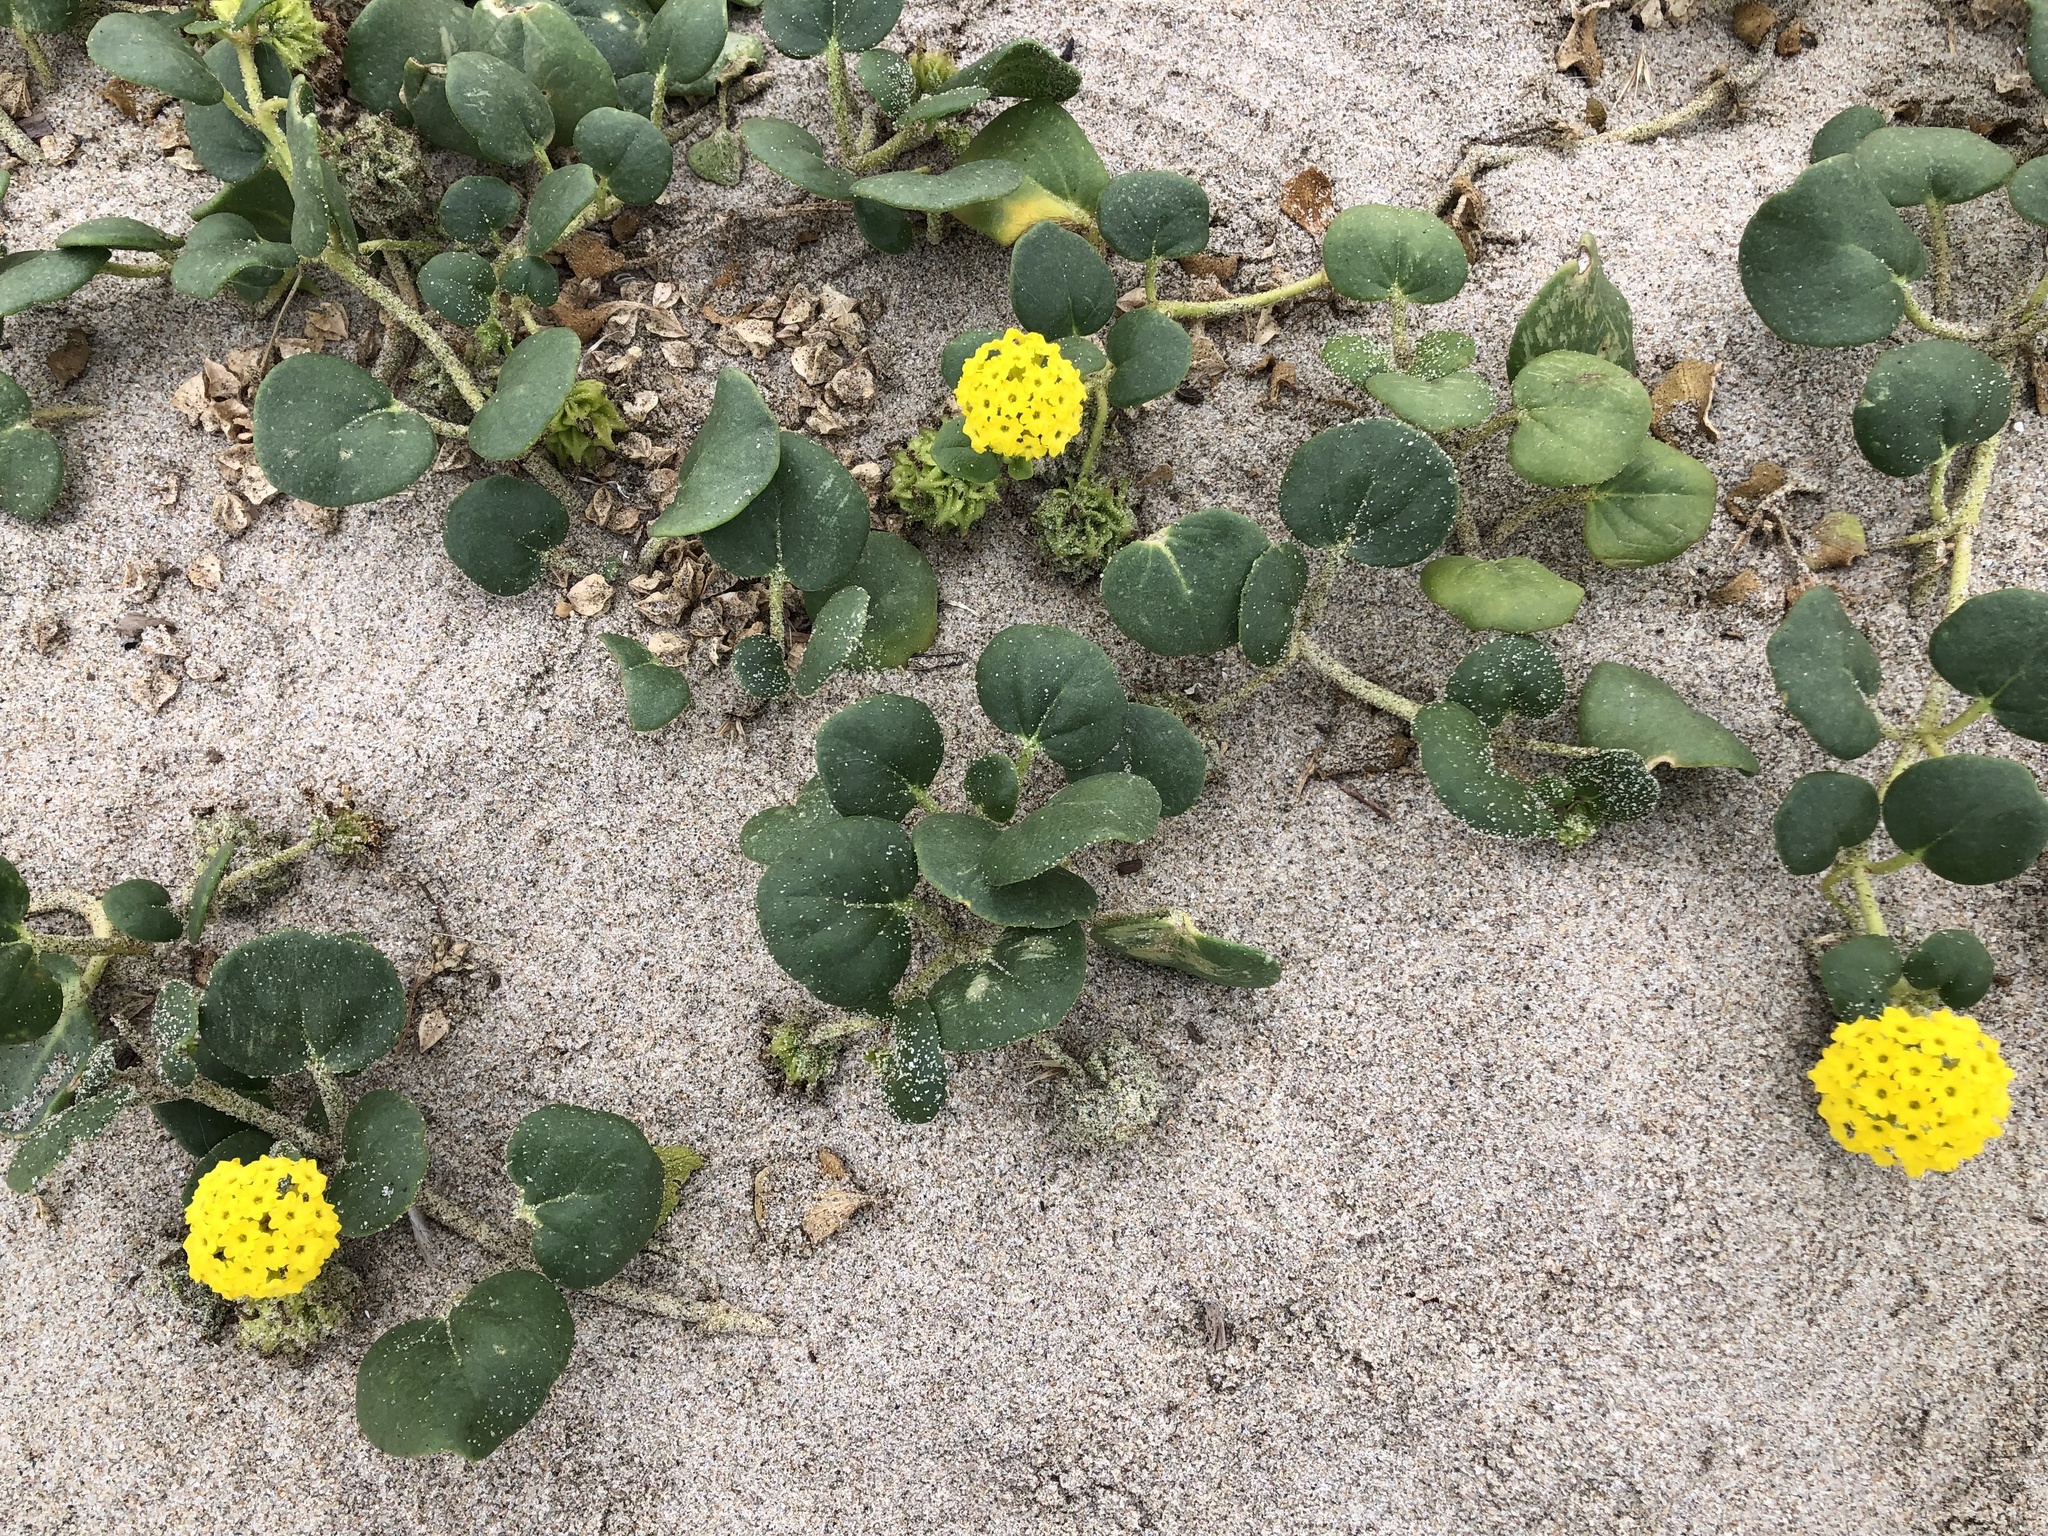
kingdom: Plantae
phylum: Tracheophyta
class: Magnoliopsida
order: Caryophyllales
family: Nyctaginaceae
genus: Abronia
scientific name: Abronia latifolia
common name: Yellow sand-verbena
